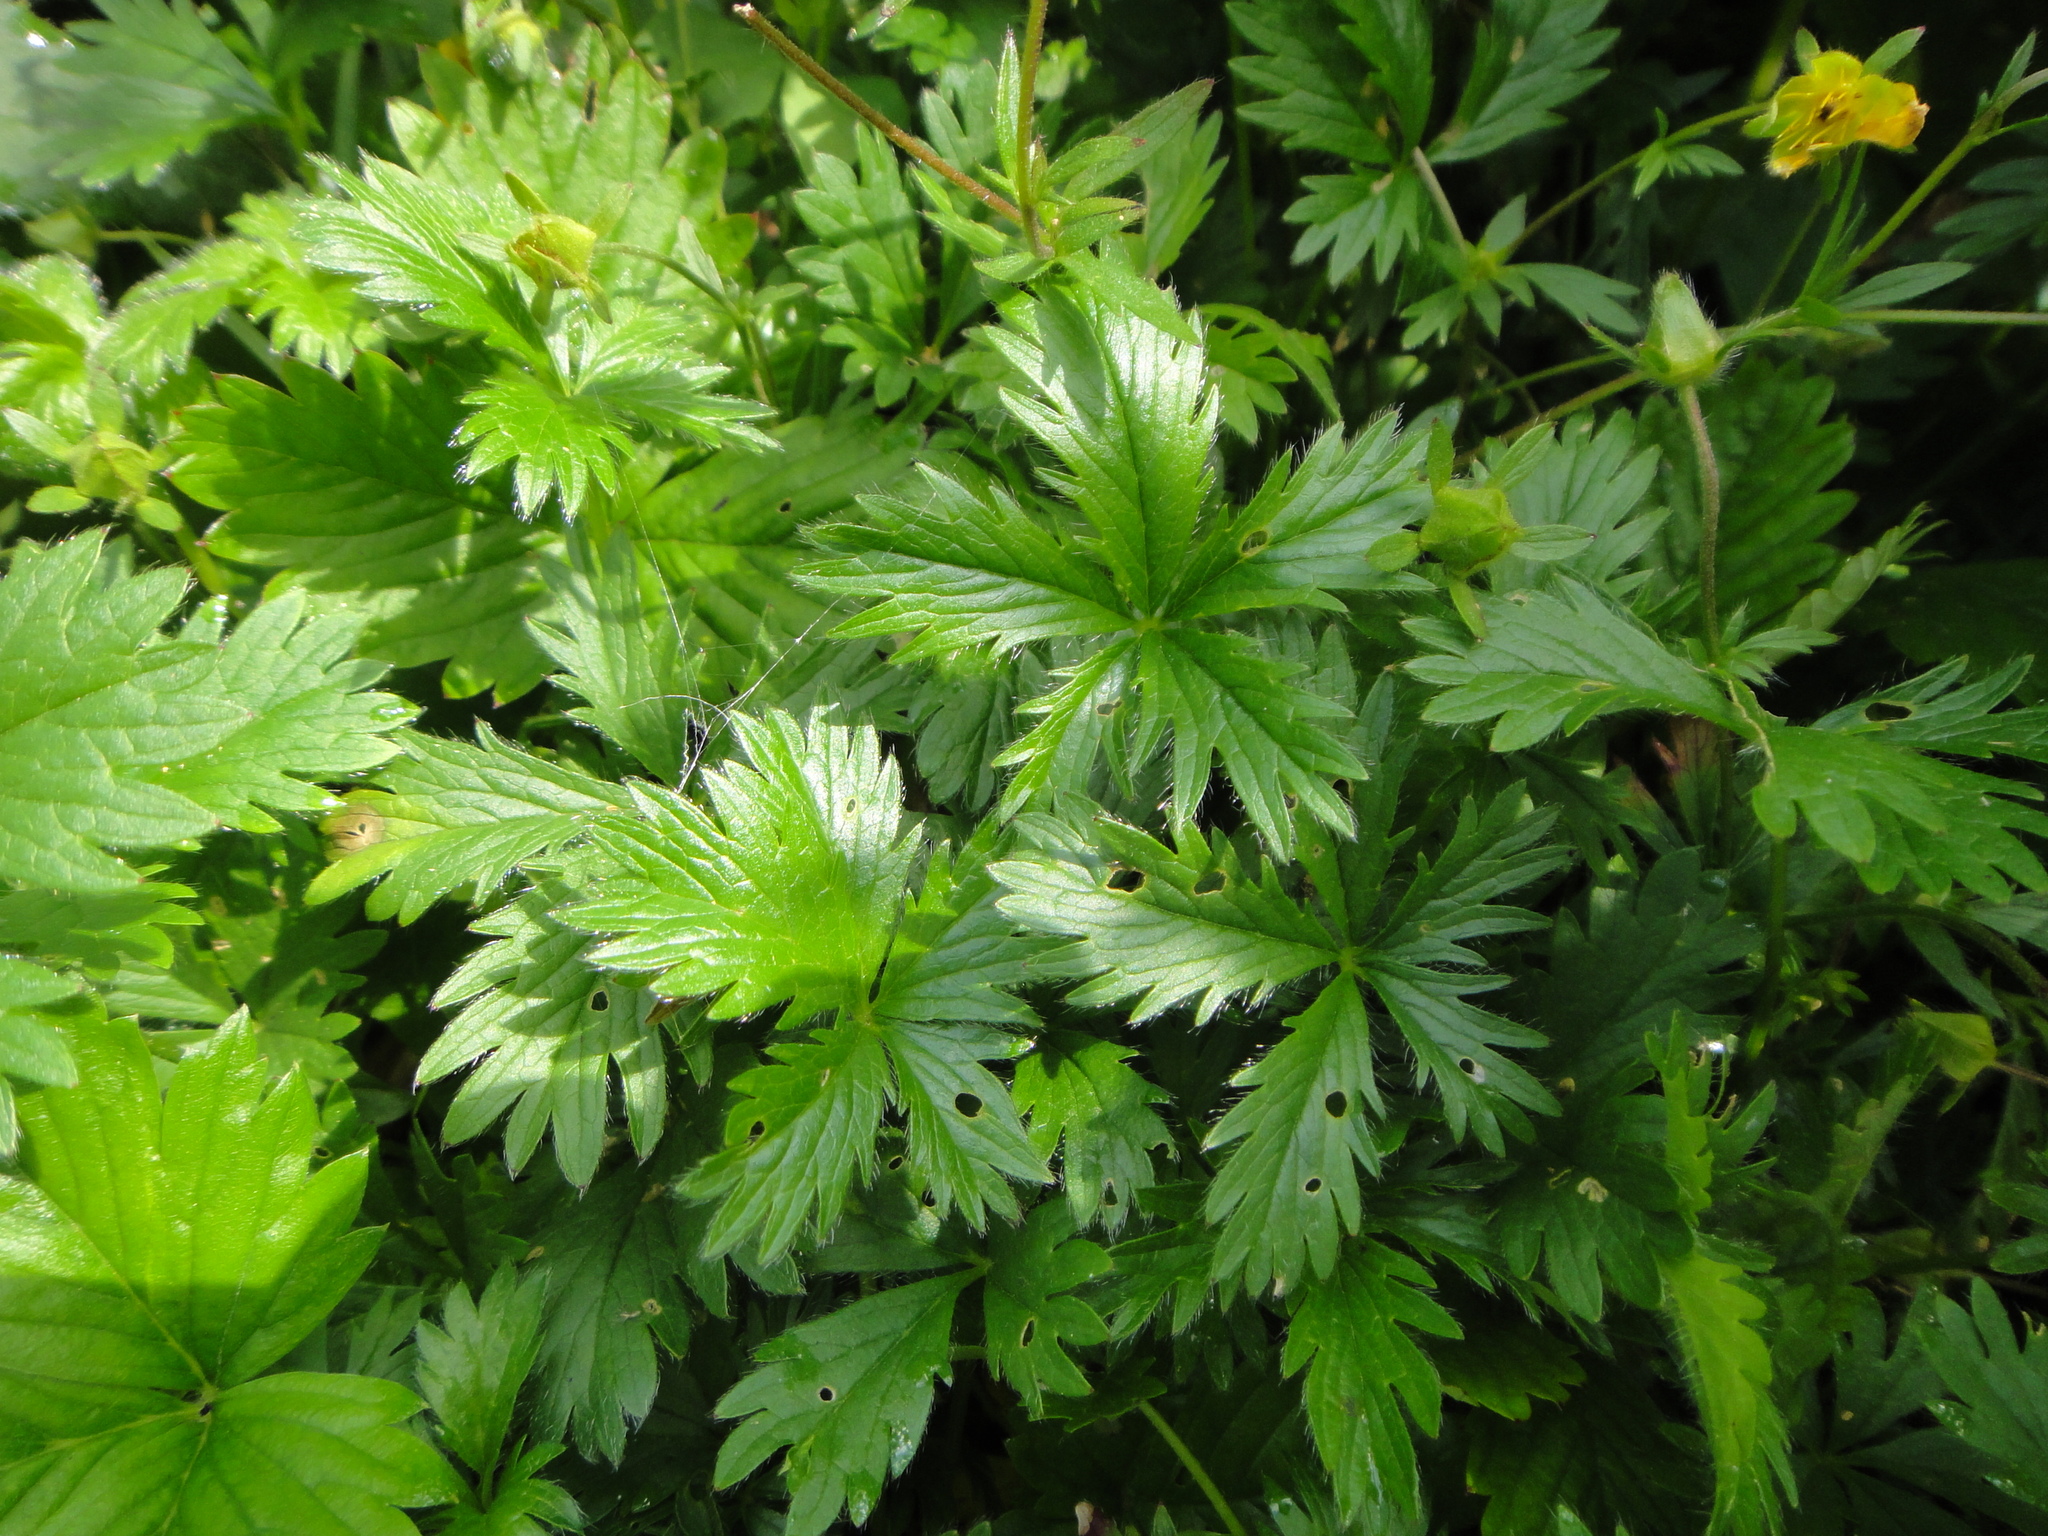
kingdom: Plantae
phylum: Tracheophyta
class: Magnoliopsida
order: Rosales
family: Rosaceae
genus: Potentilla
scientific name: Potentilla crantzii
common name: Alpine cinquefoil
